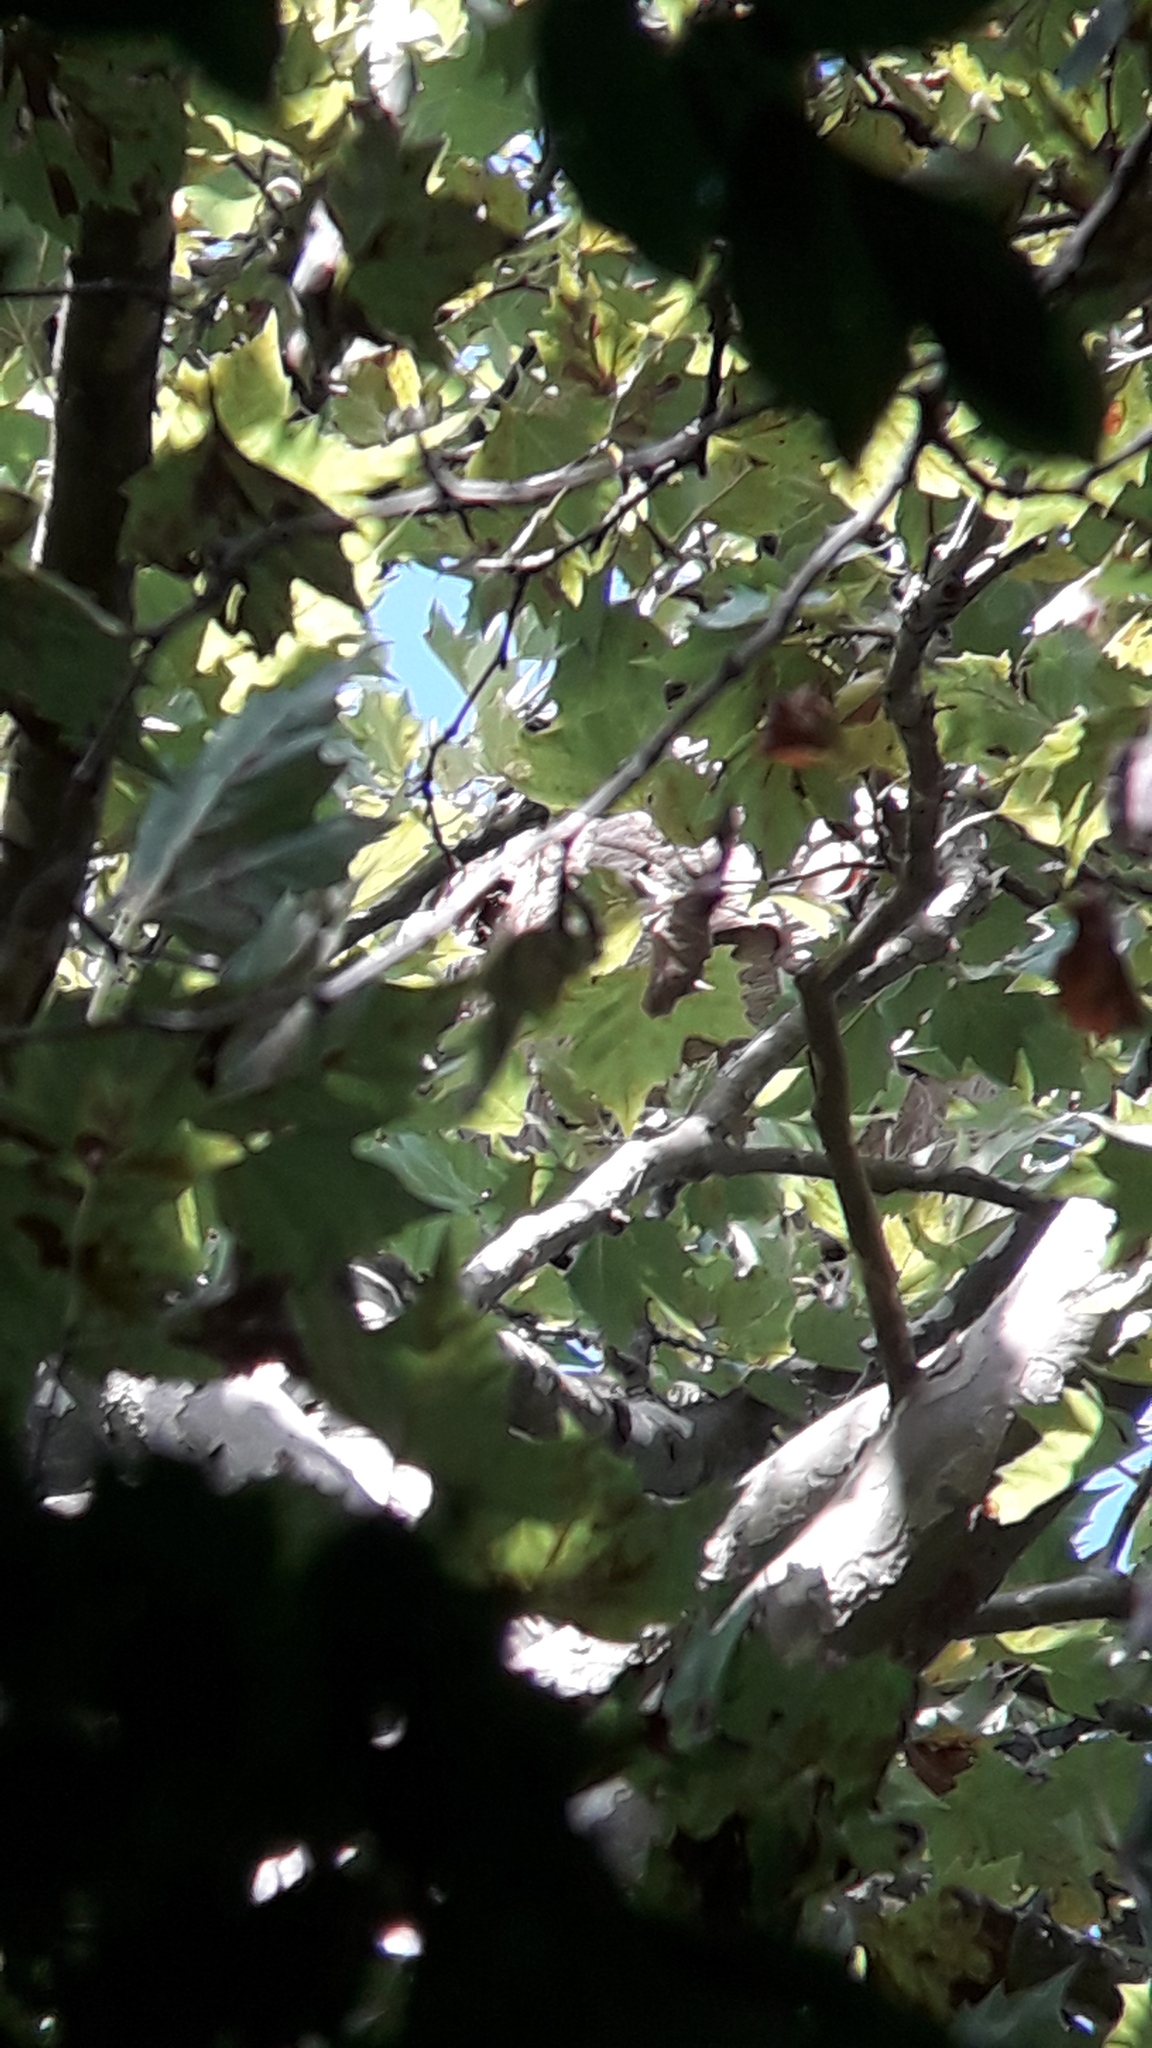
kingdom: Animalia
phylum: Arthropoda
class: Insecta
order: Hymenoptera
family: Vespidae
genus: Vespa
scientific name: Vespa velutina
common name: Asian hornet
